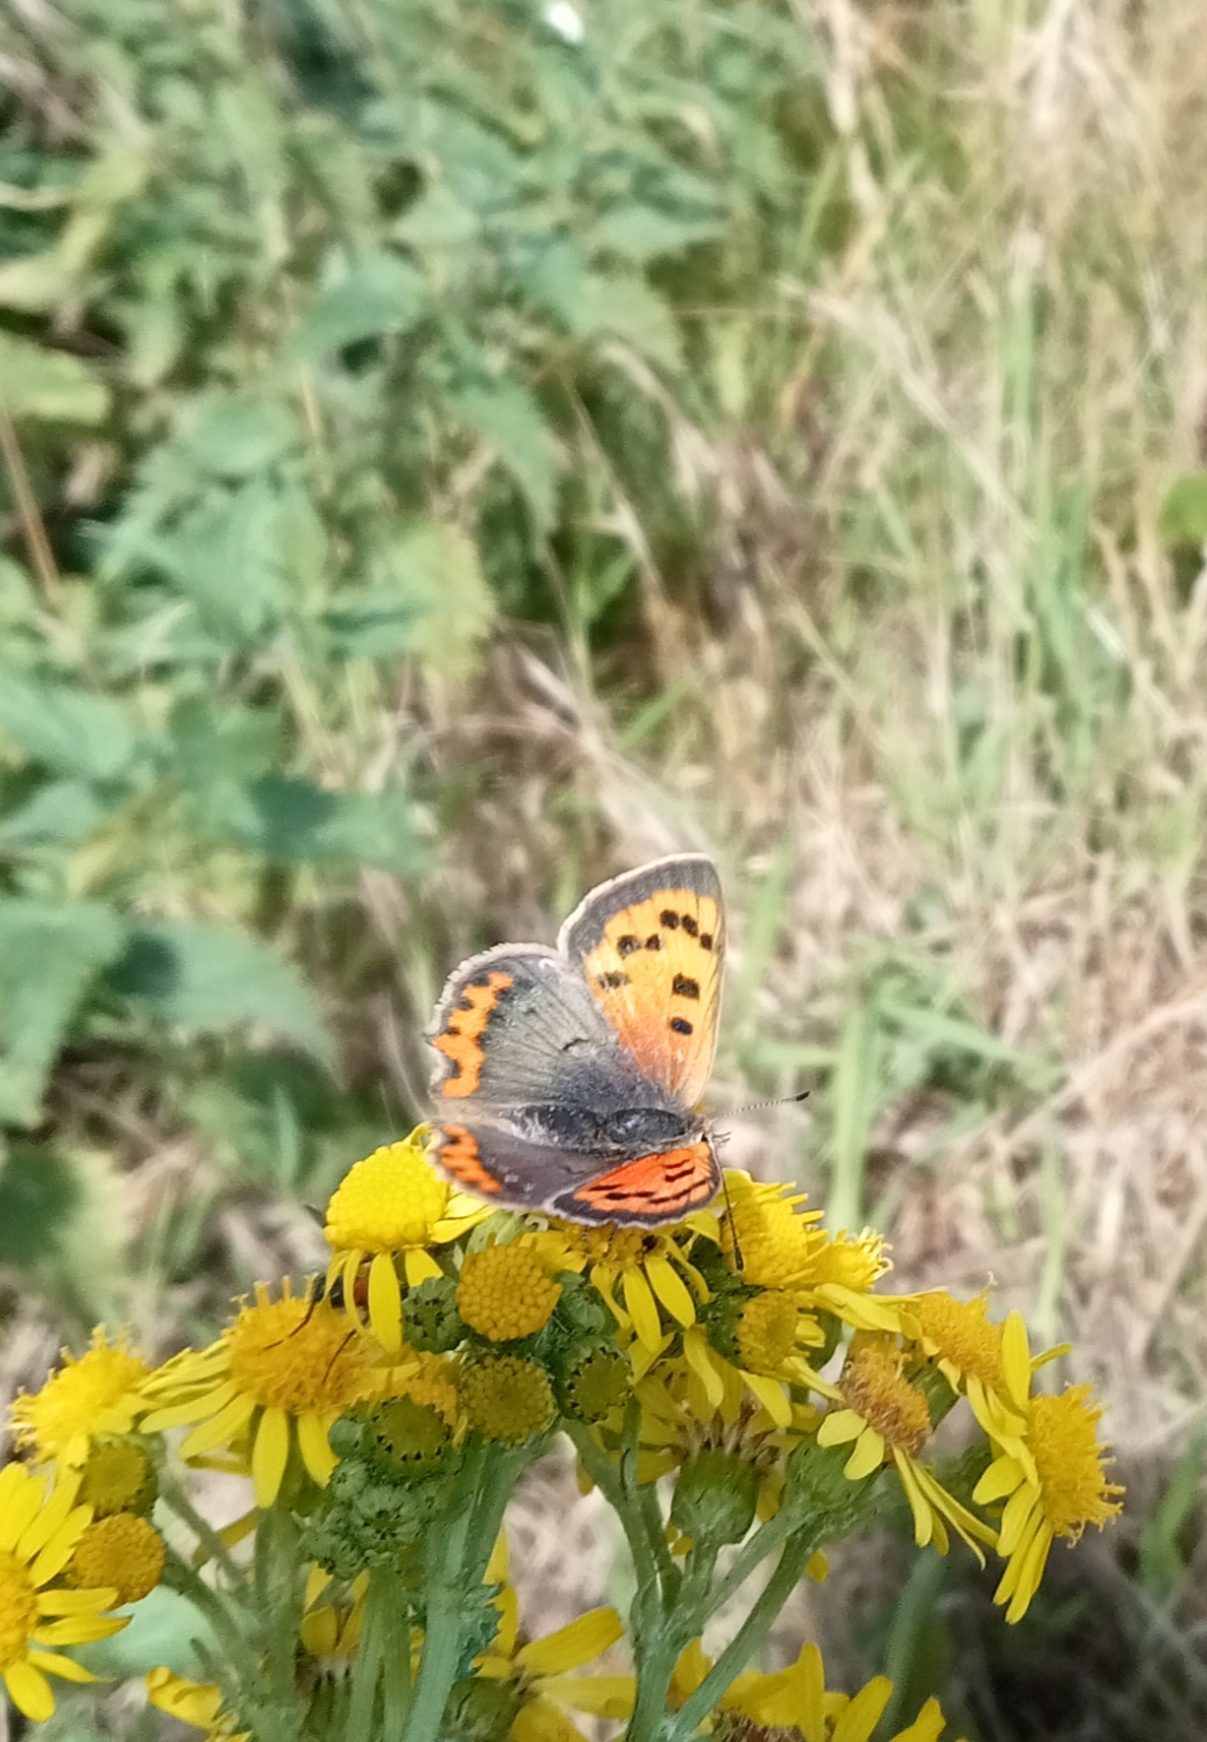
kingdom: Animalia
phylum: Arthropoda
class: Insecta
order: Lepidoptera
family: Lycaenidae
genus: Lycaena
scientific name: Lycaena phlaeas
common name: Small copper
